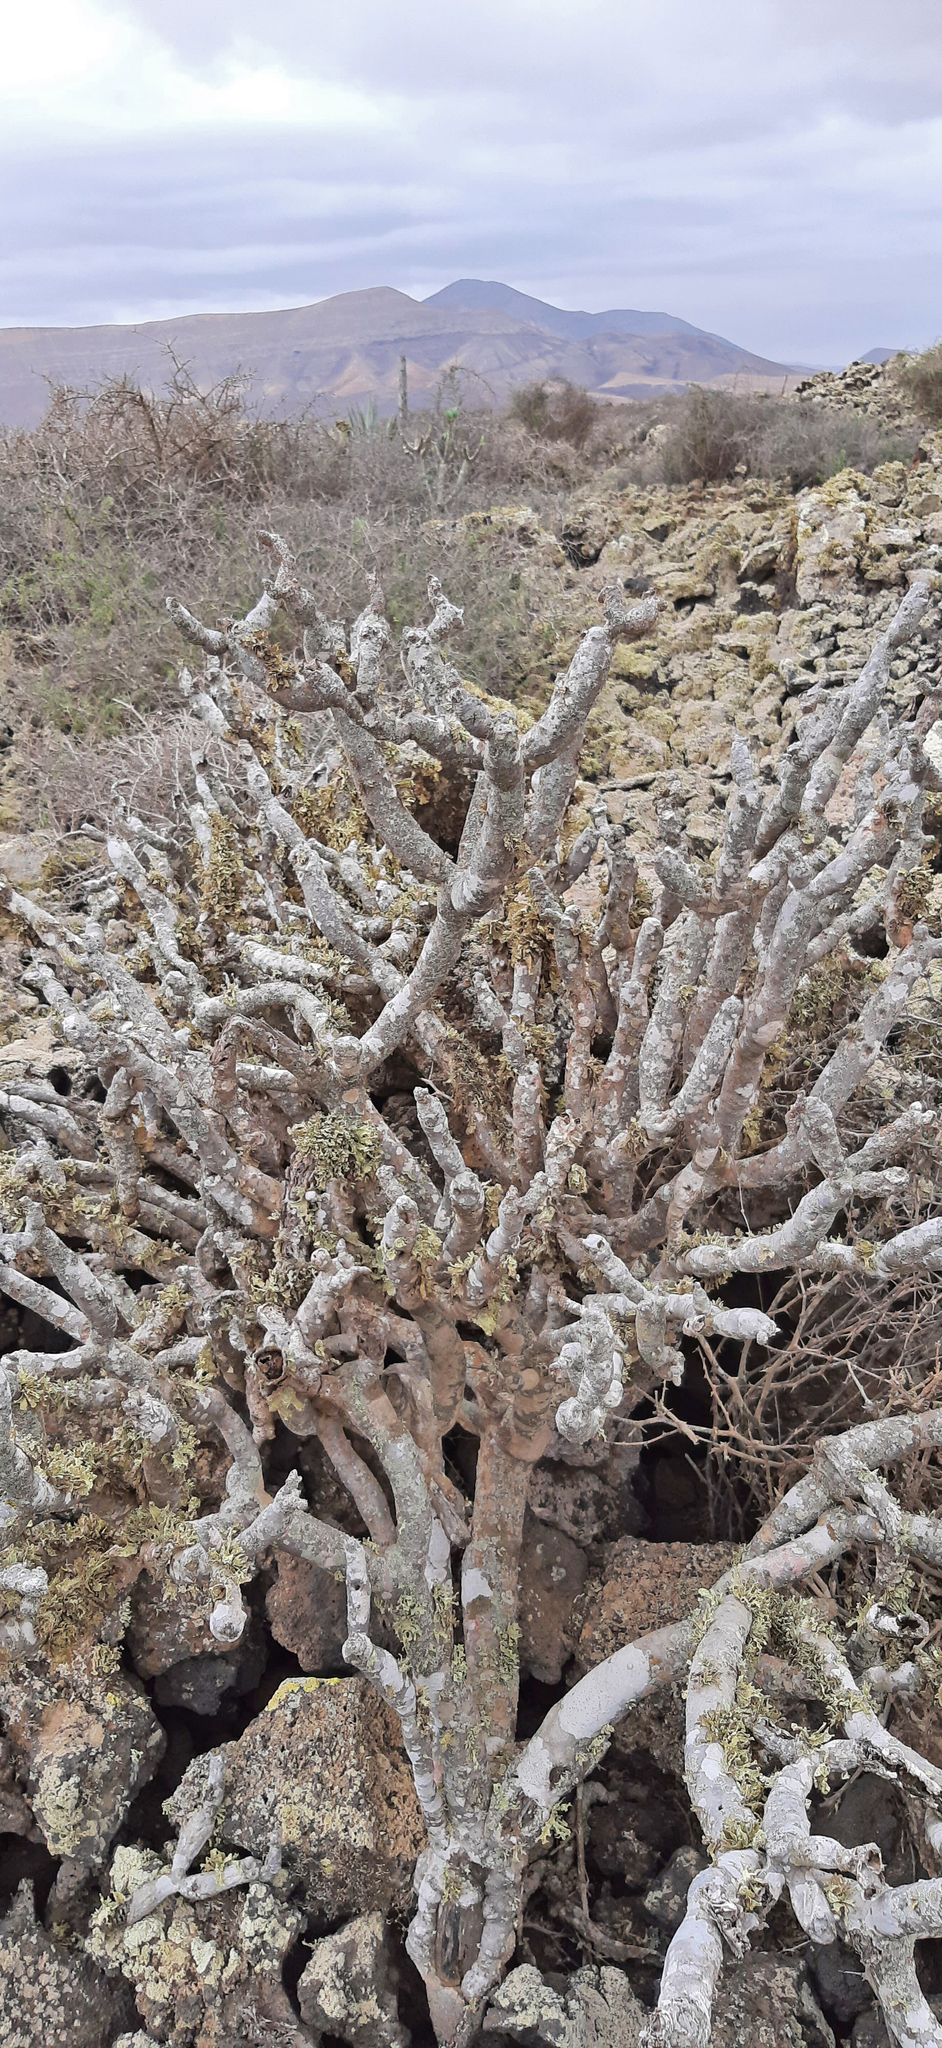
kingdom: Plantae
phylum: Tracheophyta
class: Magnoliopsida
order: Asterales
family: Asteraceae
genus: Kleinia
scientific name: Kleinia neriifolia
